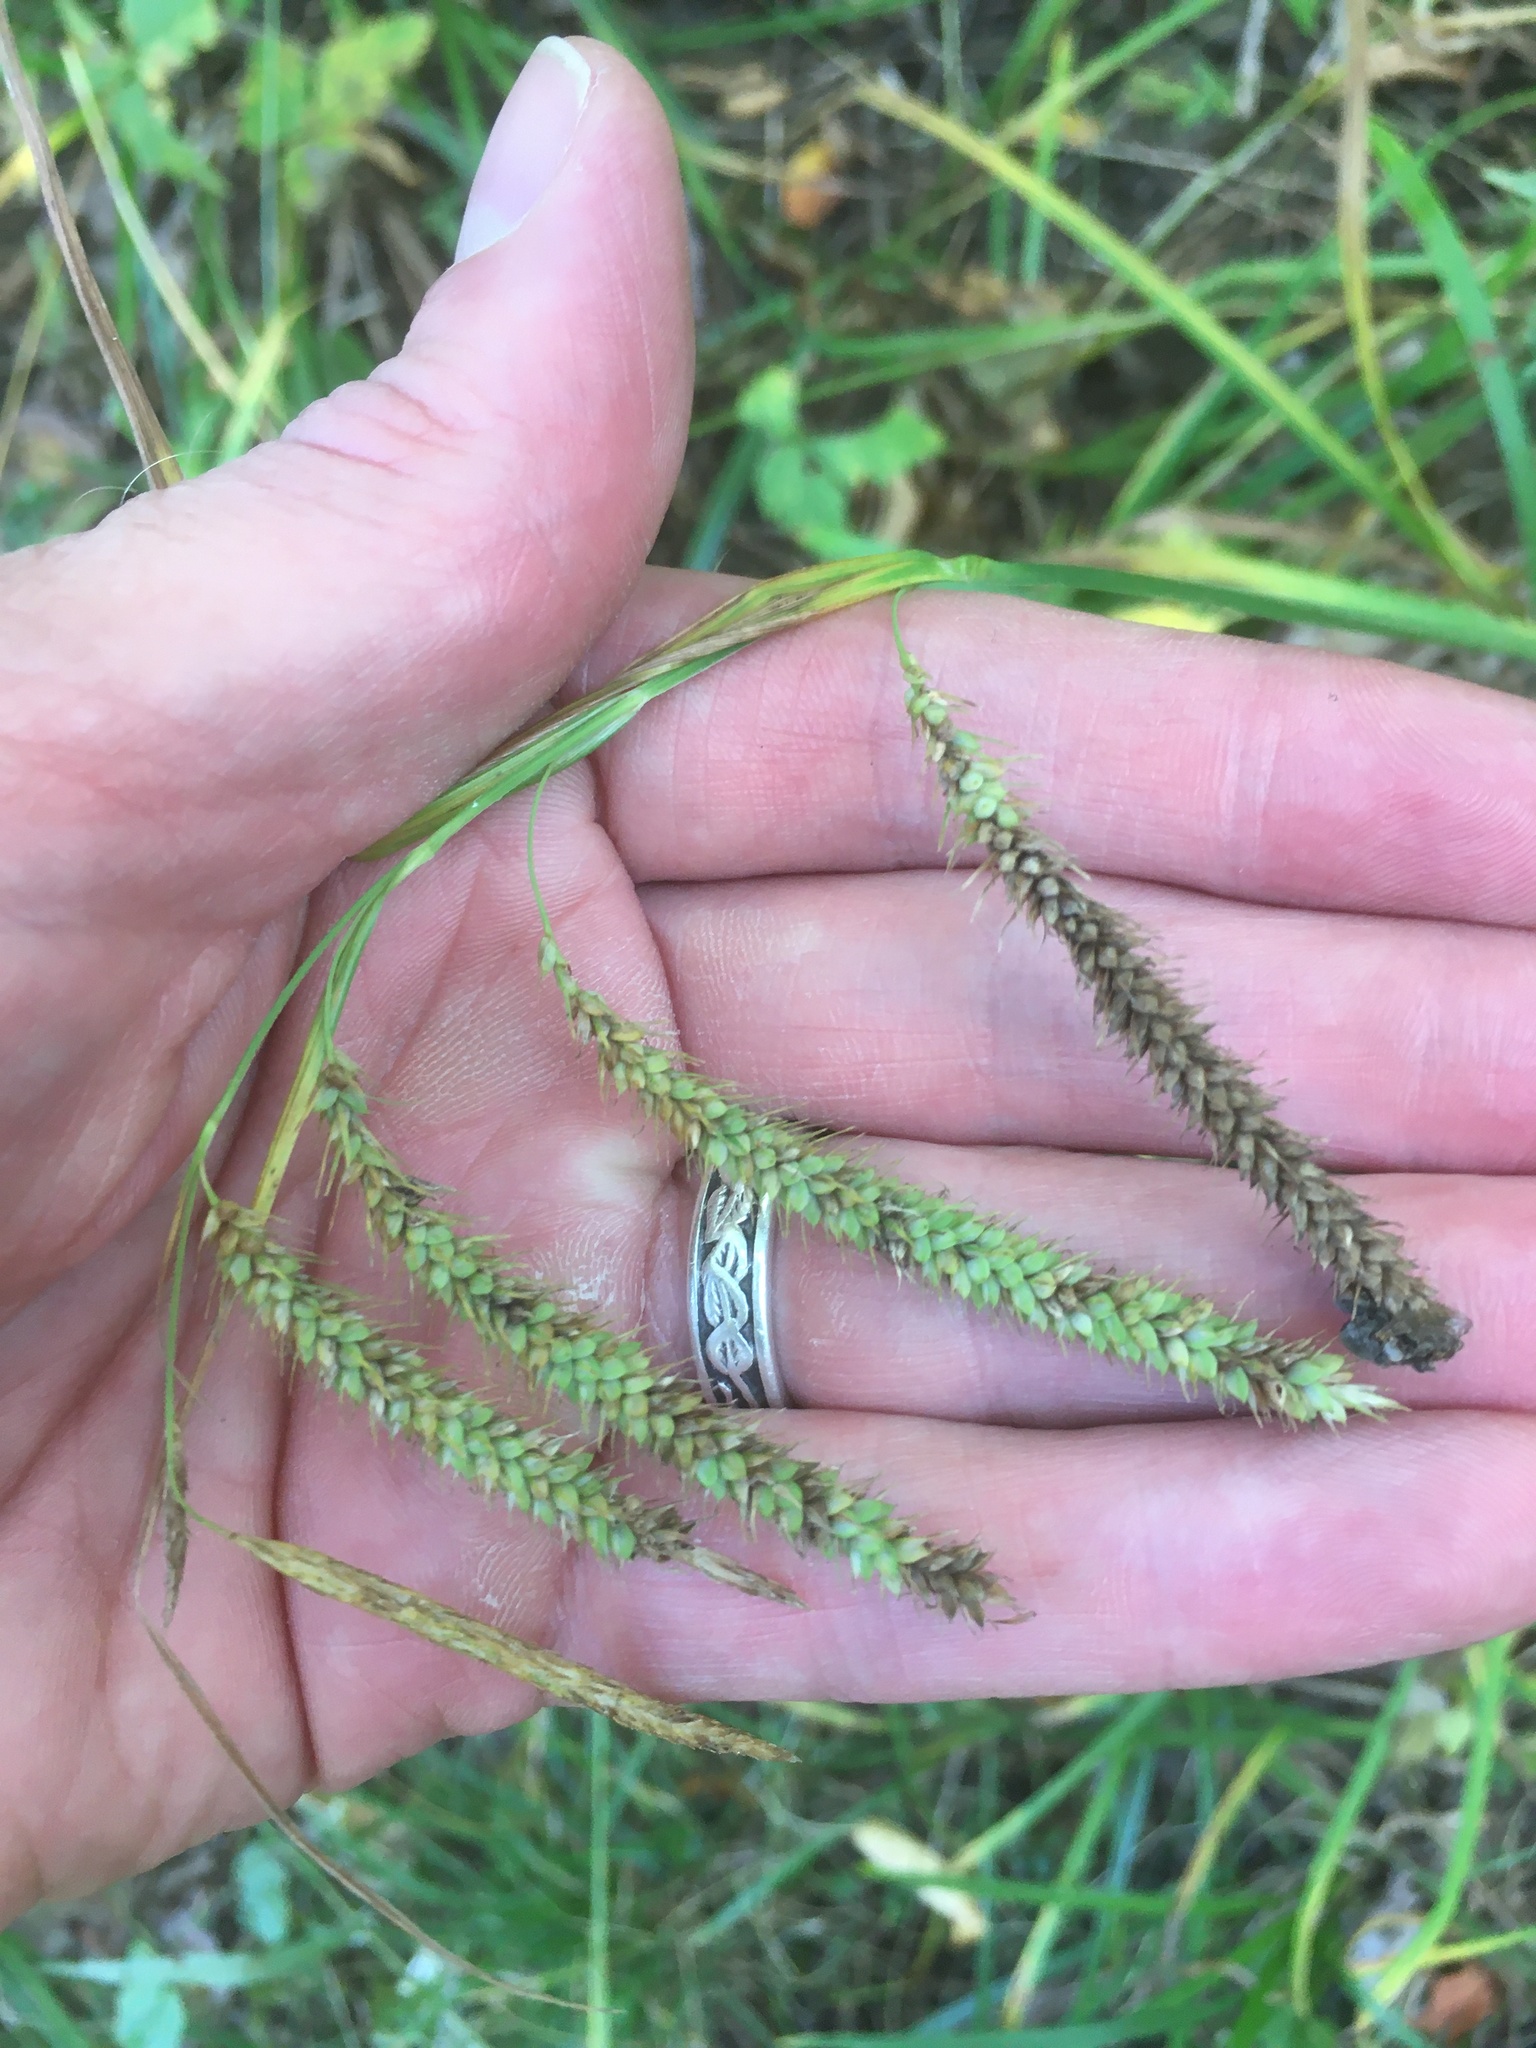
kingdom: Plantae
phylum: Tracheophyta
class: Liliopsida
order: Poales
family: Cyperaceae
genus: Carex
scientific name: Carex gynandra
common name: Nodding sedge
